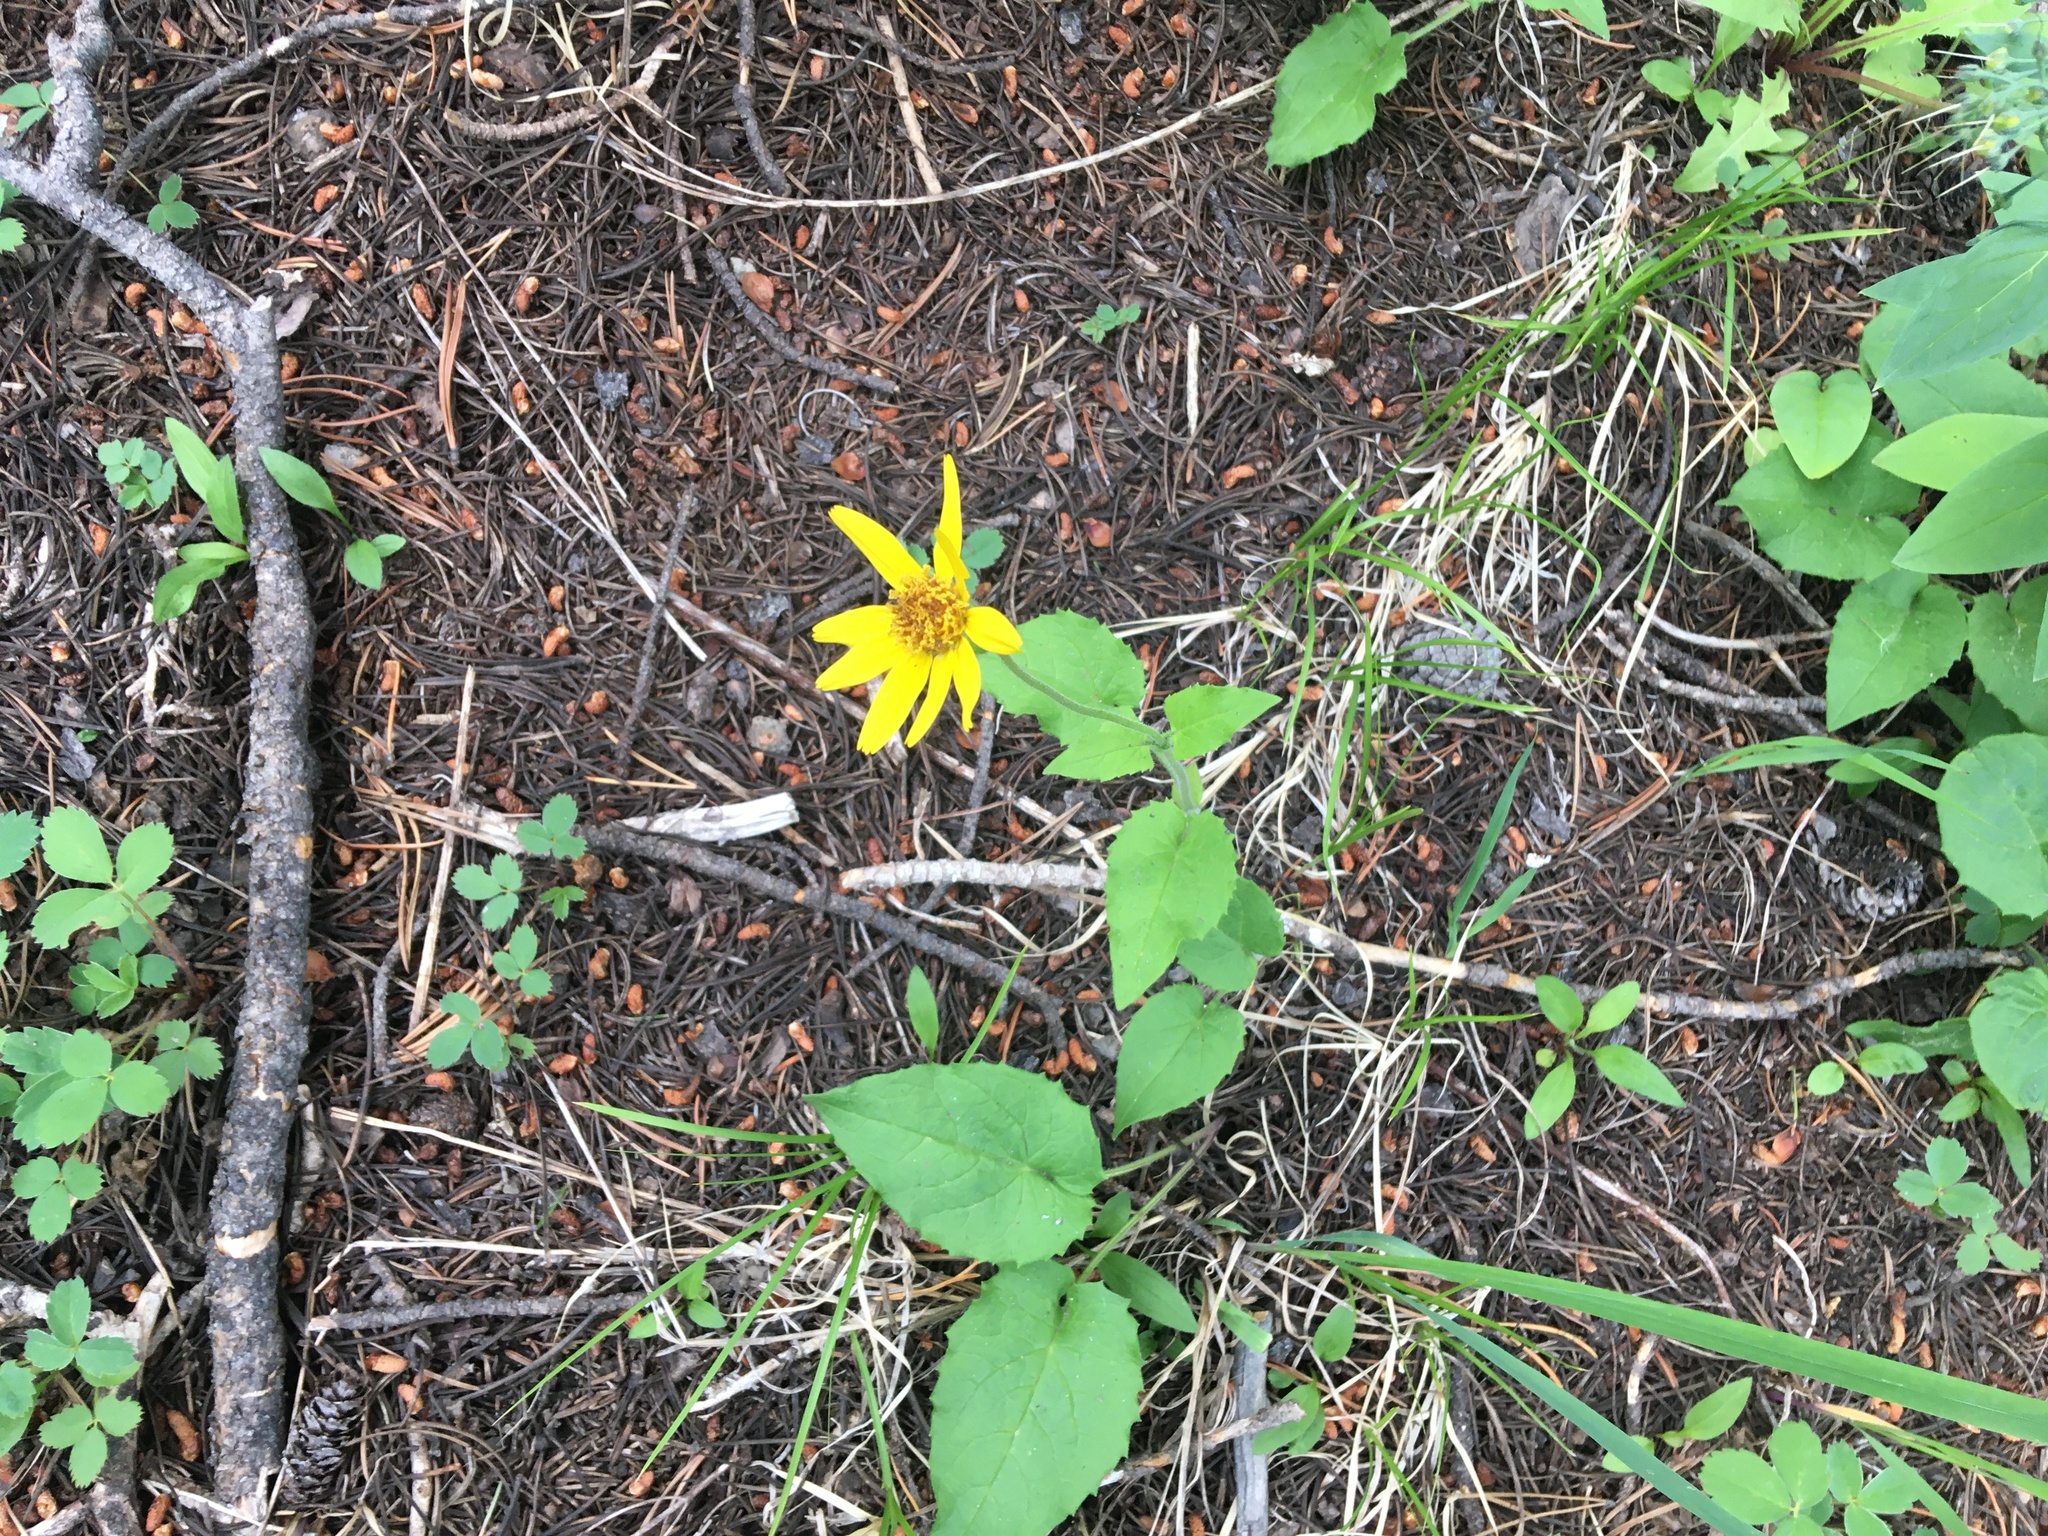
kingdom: Plantae
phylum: Tracheophyta
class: Magnoliopsida
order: Asterales
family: Asteraceae
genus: Arnica
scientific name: Arnica cordifolia
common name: Heart-leaf arnica
